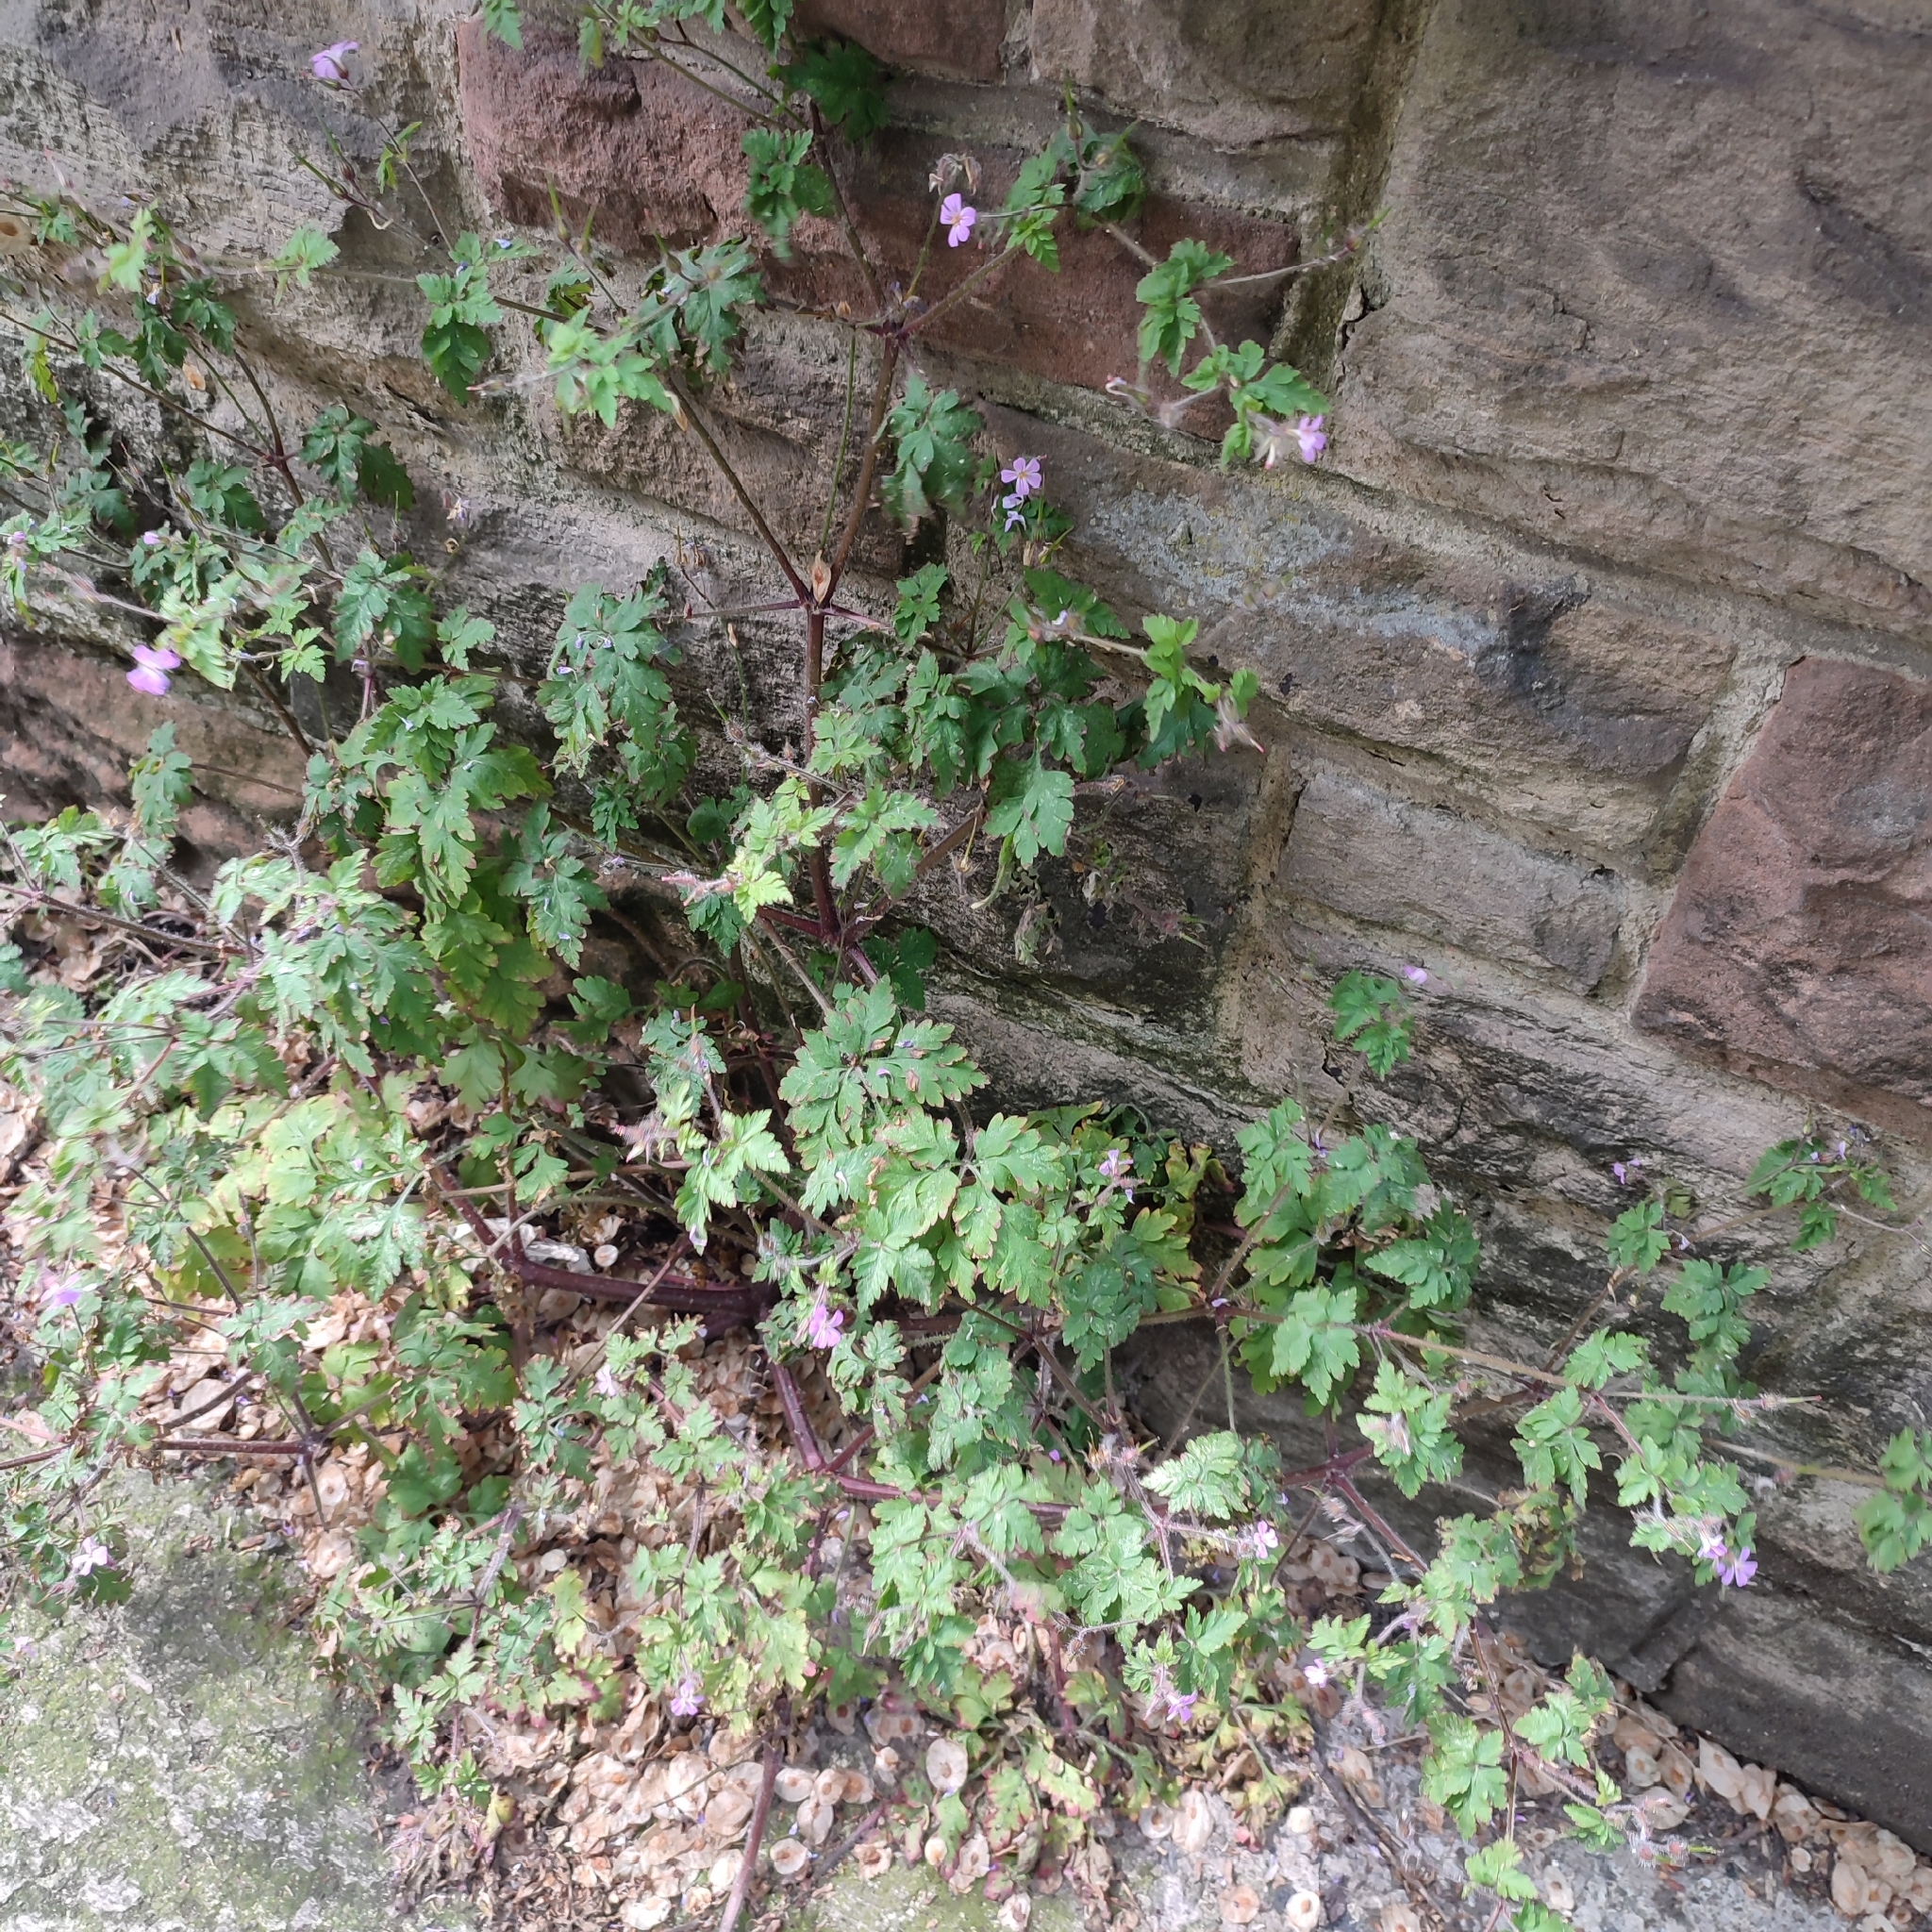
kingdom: Plantae
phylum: Tracheophyta
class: Magnoliopsida
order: Geraniales
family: Geraniaceae
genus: Geranium
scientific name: Geranium robertianum
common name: Herb-robert
